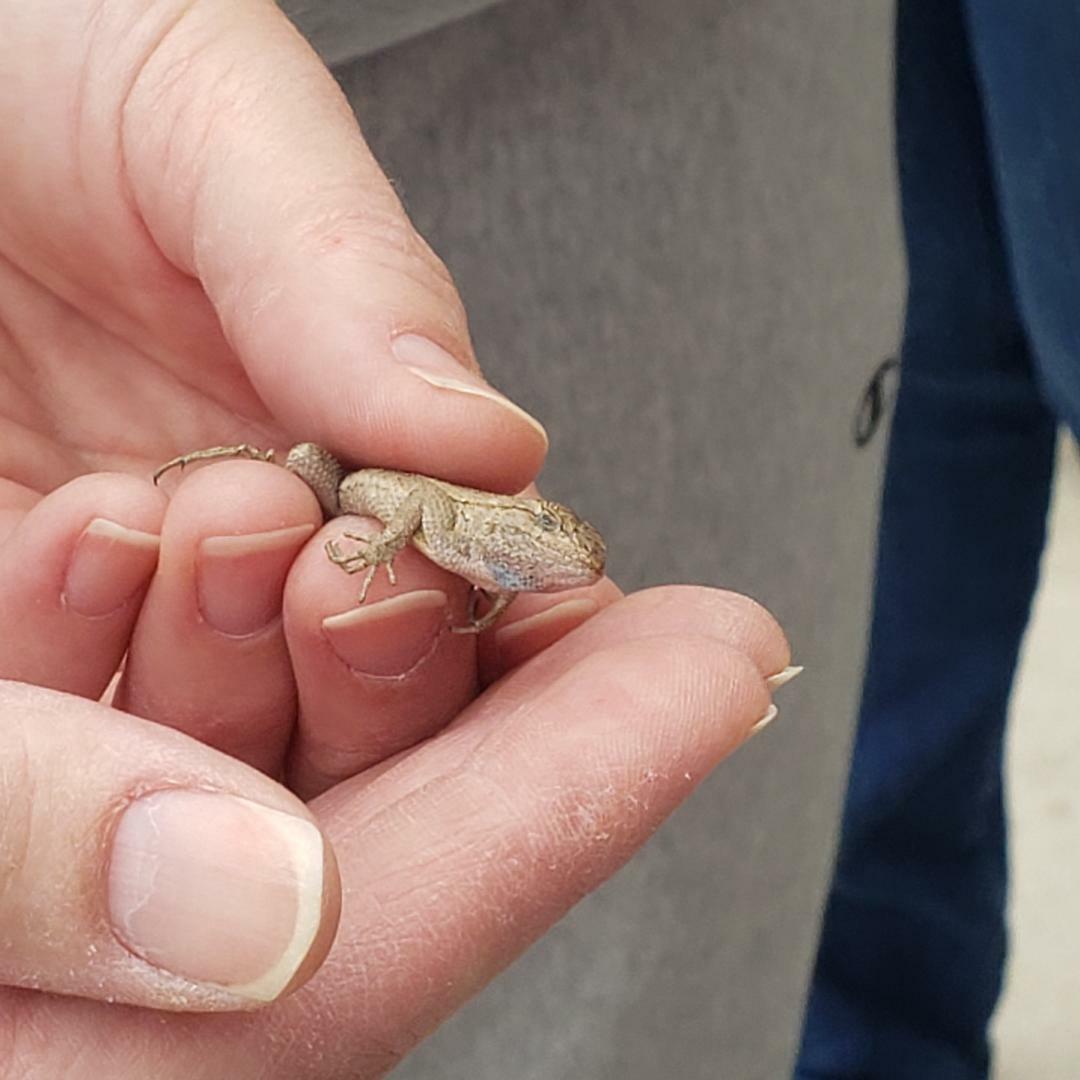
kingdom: Animalia
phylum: Chordata
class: Squamata
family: Phrynosomatidae
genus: Sceloporus
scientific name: Sceloporus occidentalis
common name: Western fence lizard
